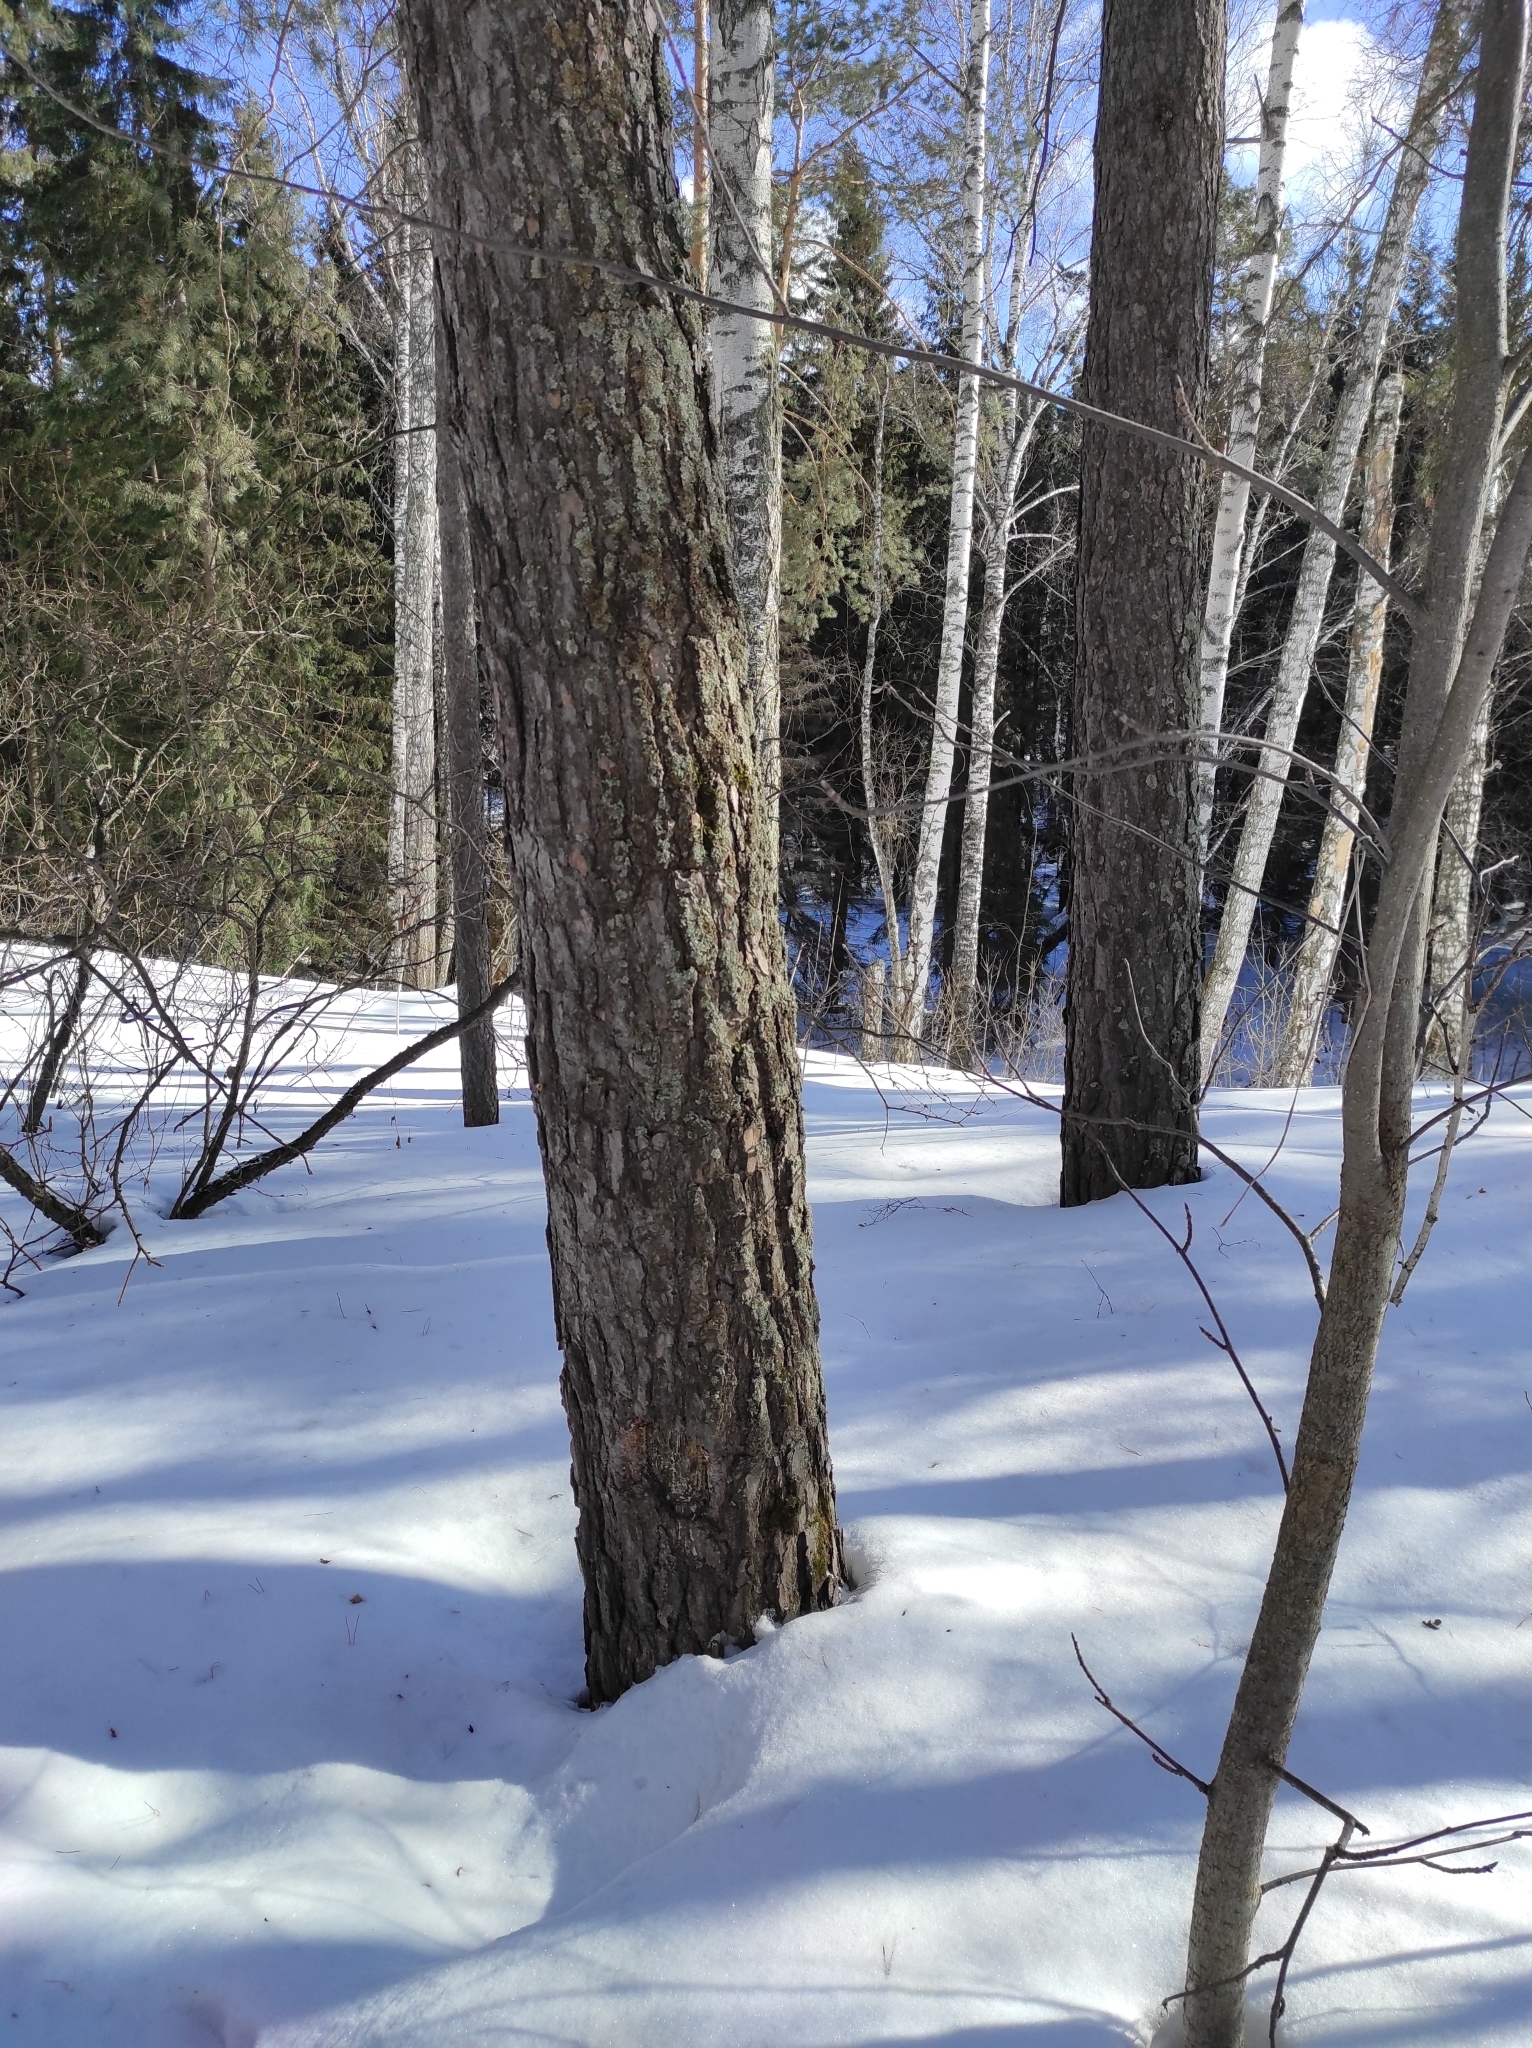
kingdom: Plantae
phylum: Tracheophyta
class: Pinopsida
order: Pinales
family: Pinaceae
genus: Pinus
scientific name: Pinus sylvestris
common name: Scots pine
